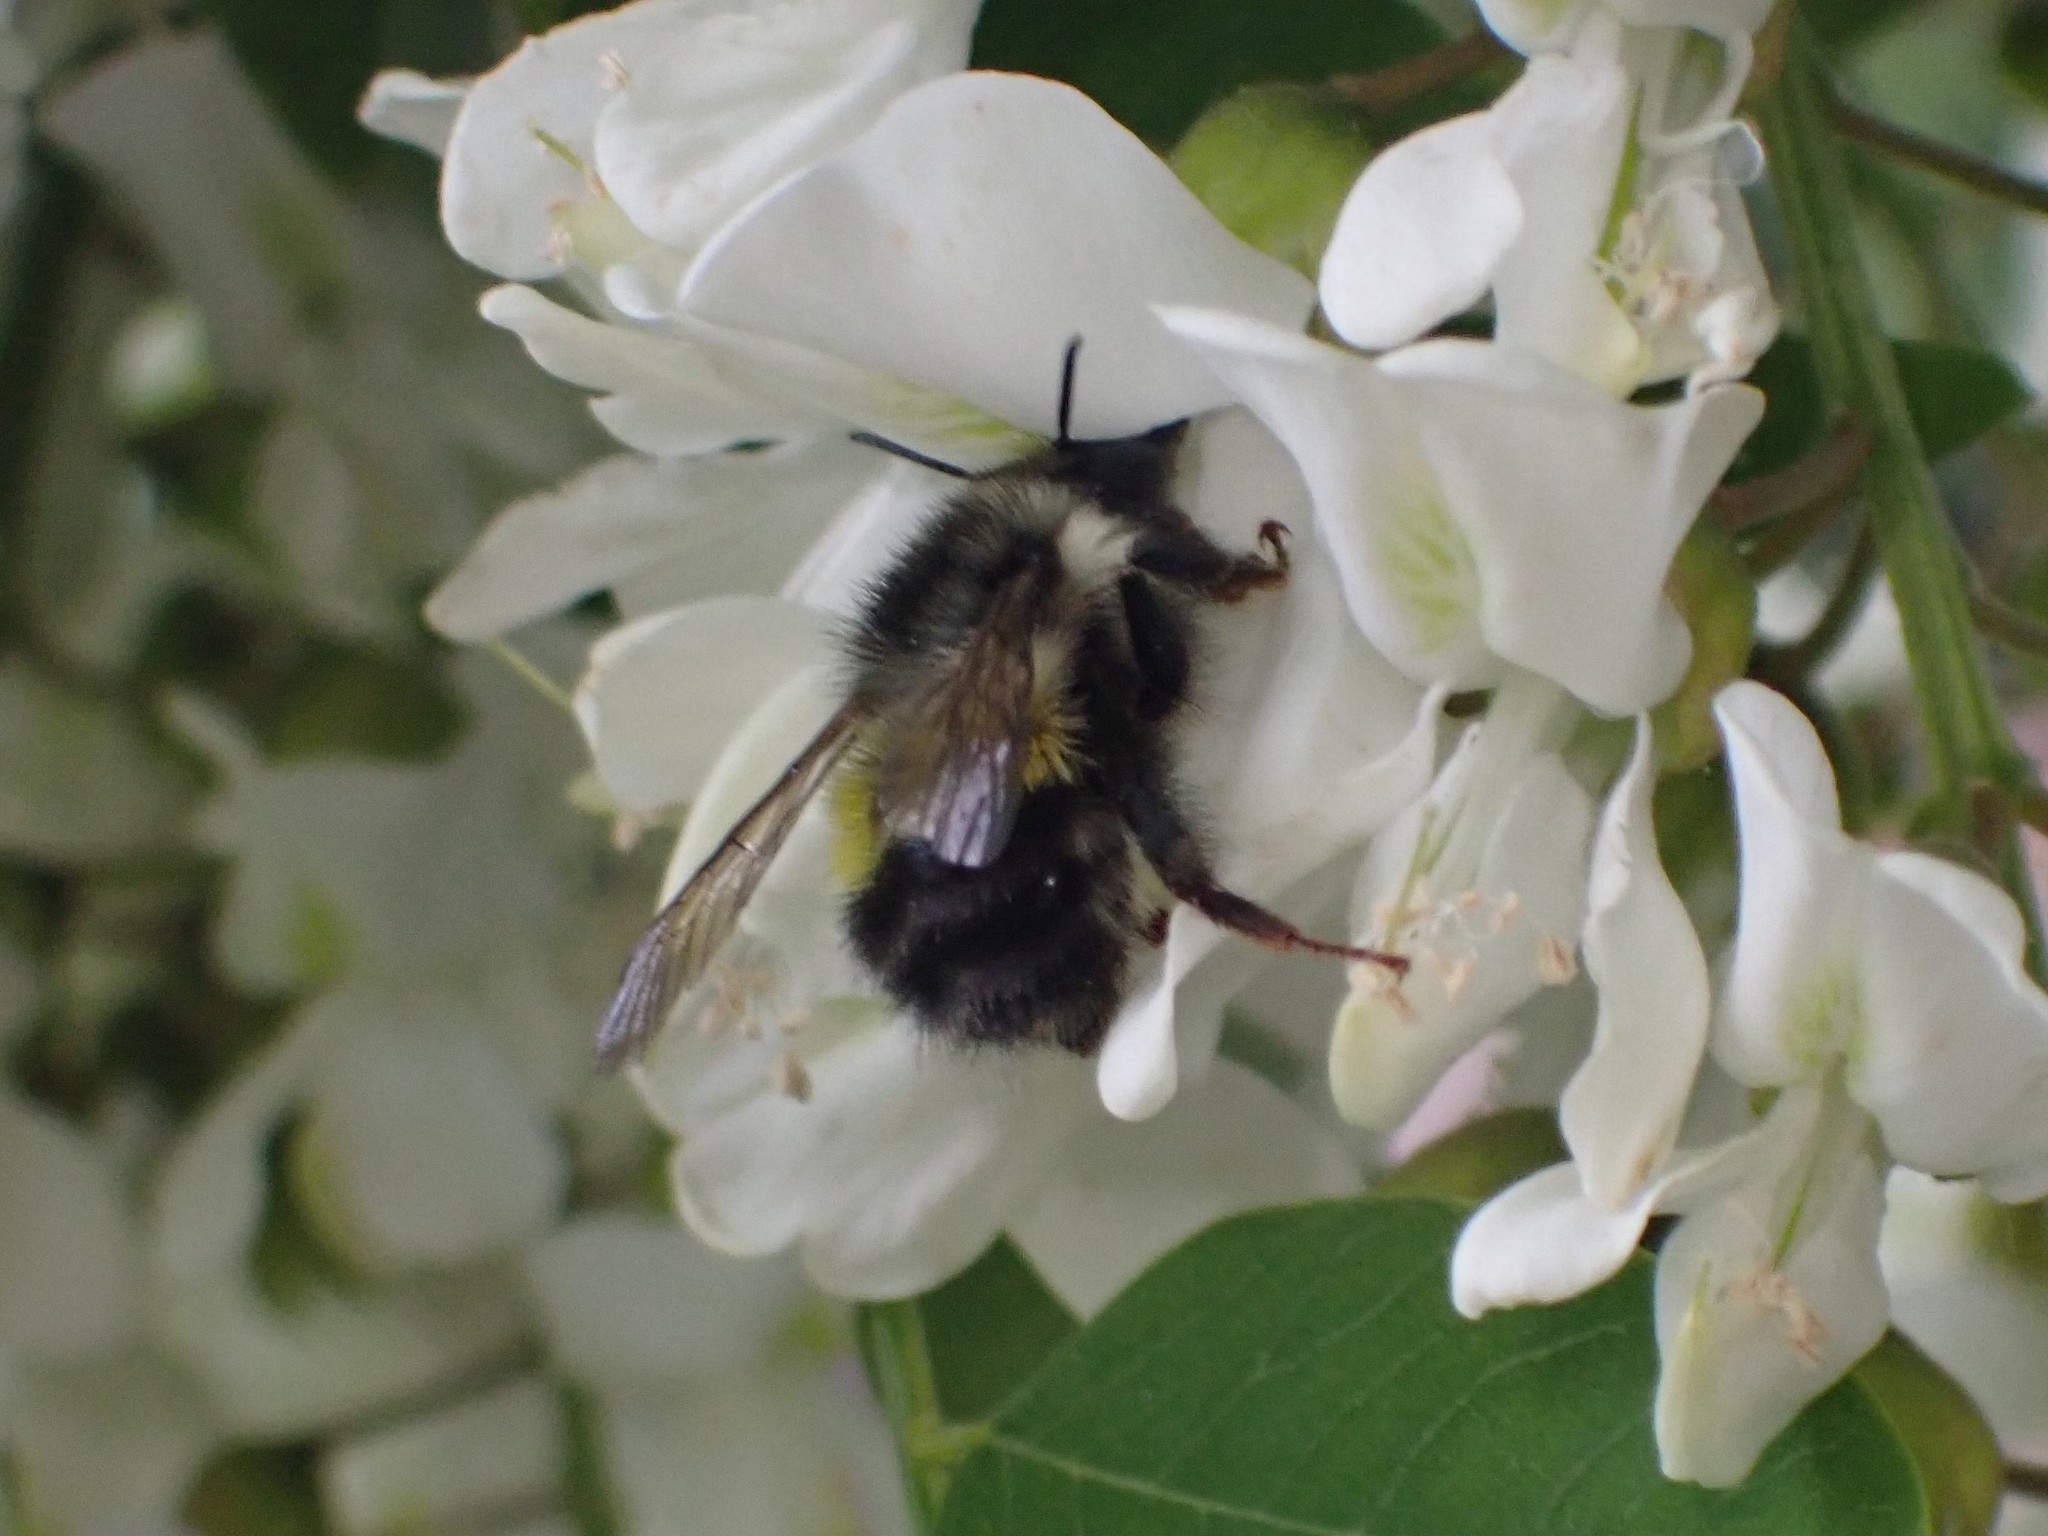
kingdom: Animalia
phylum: Arthropoda
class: Insecta
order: Hymenoptera
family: Apidae
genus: Bombus
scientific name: Bombus flavifrons
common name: Yellow head bumble bee
